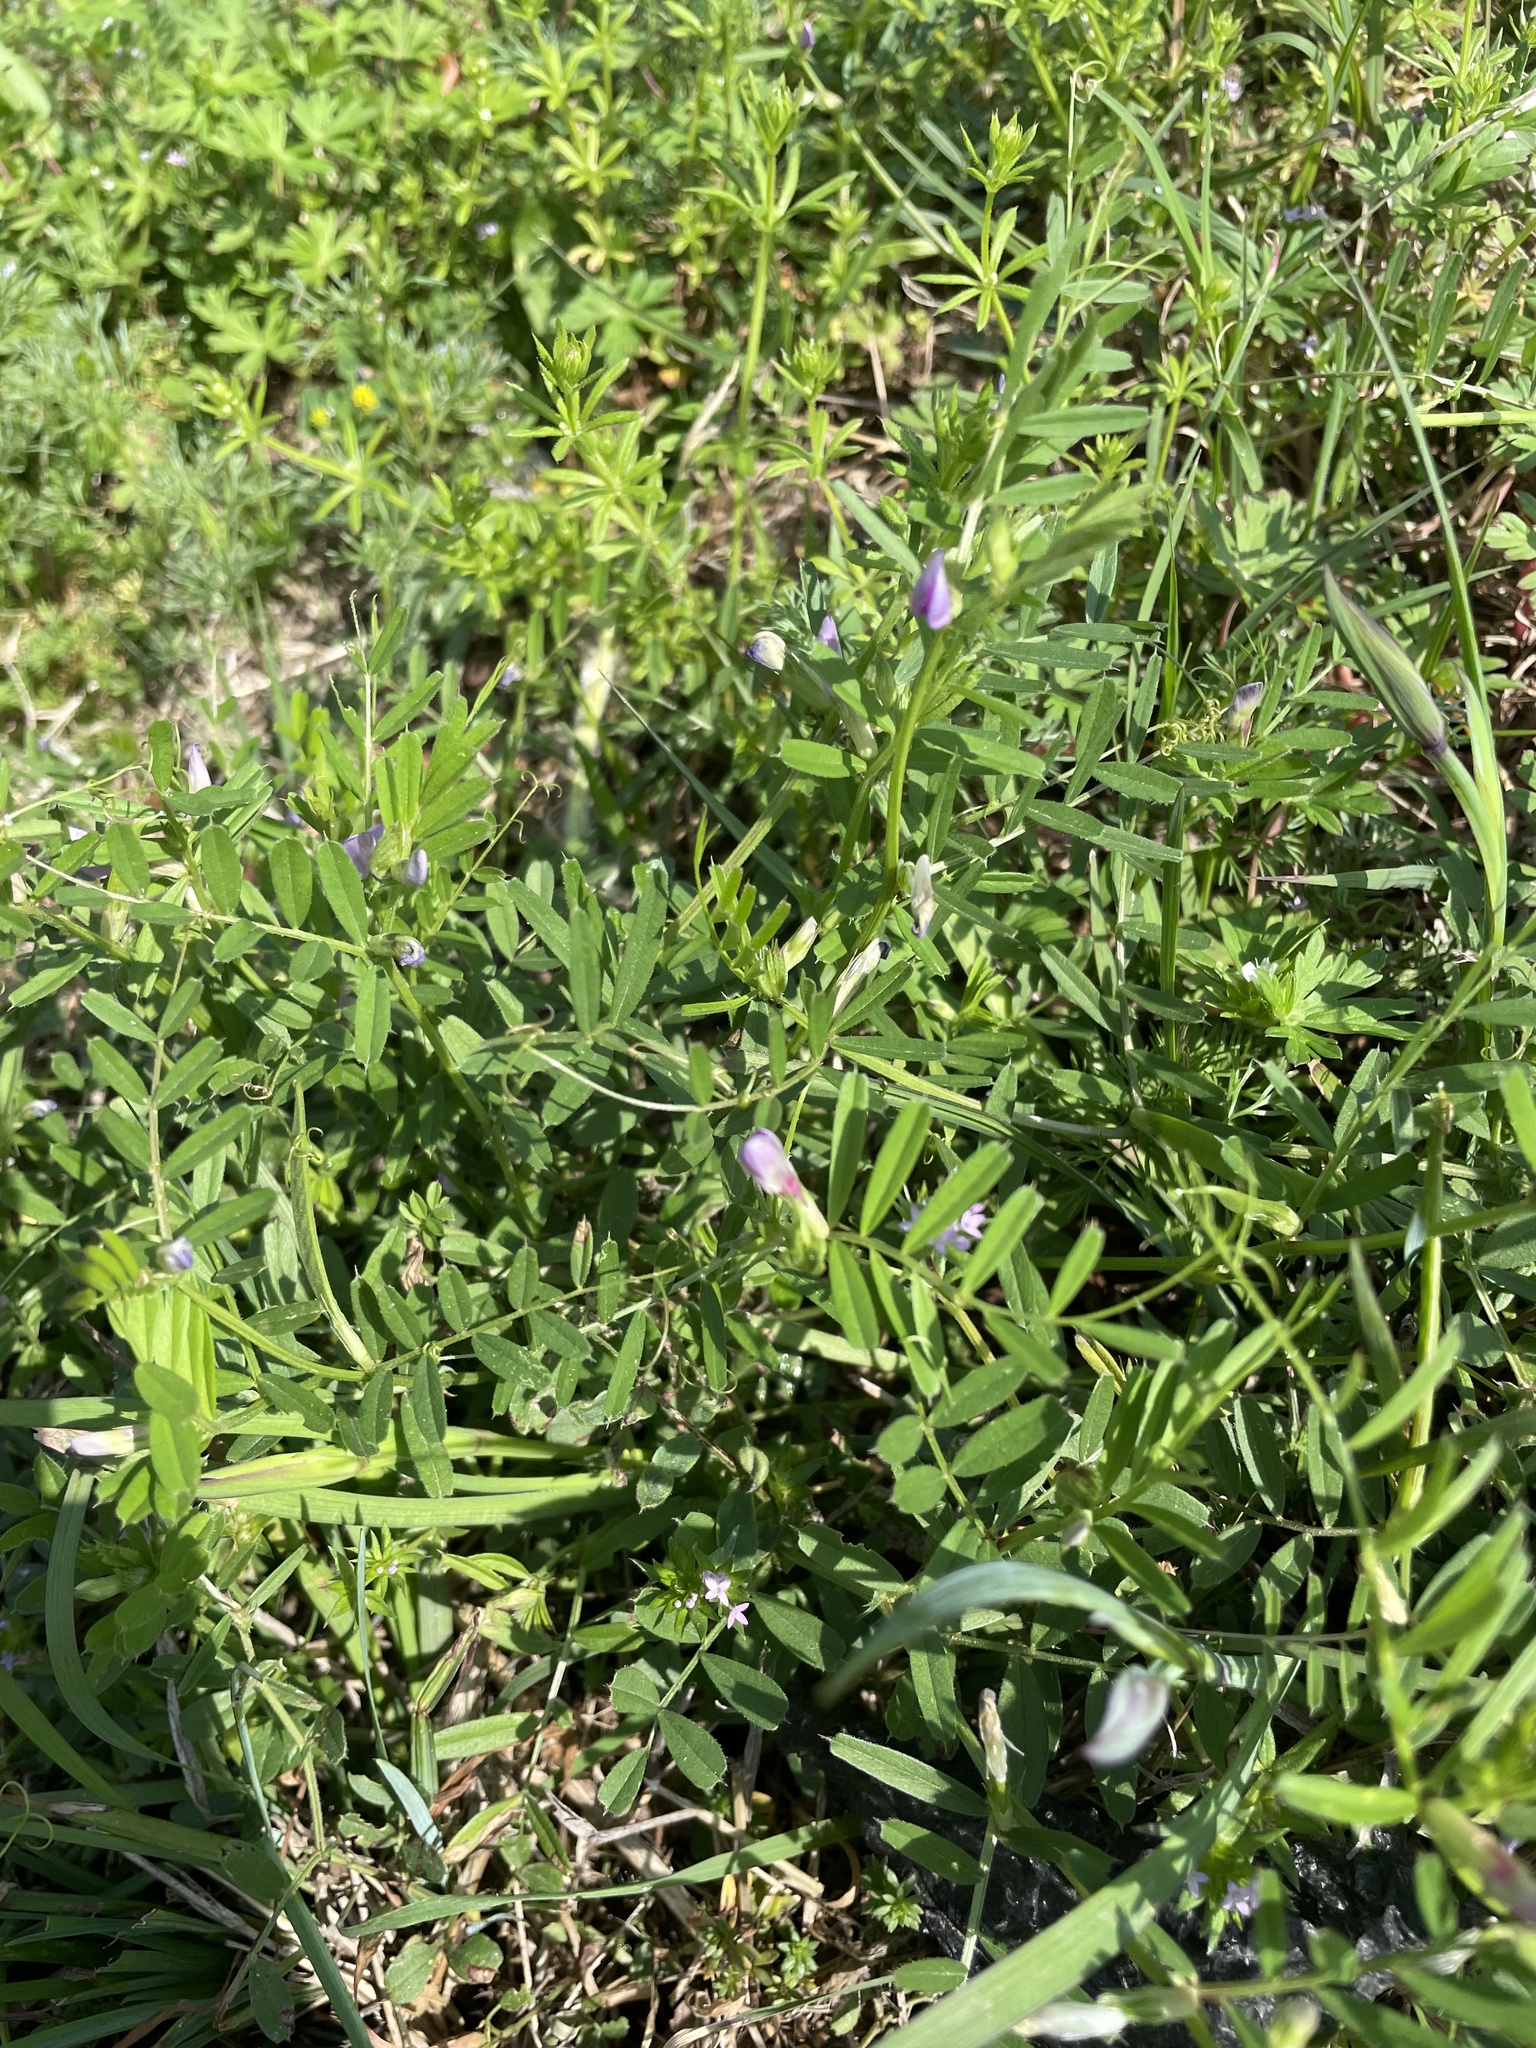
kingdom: Plantae
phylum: Tracheophyta
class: Magnoliopsida
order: Fabales
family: Fabaceae
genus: Vicia
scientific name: Vicia sativa
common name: Garden vetch
